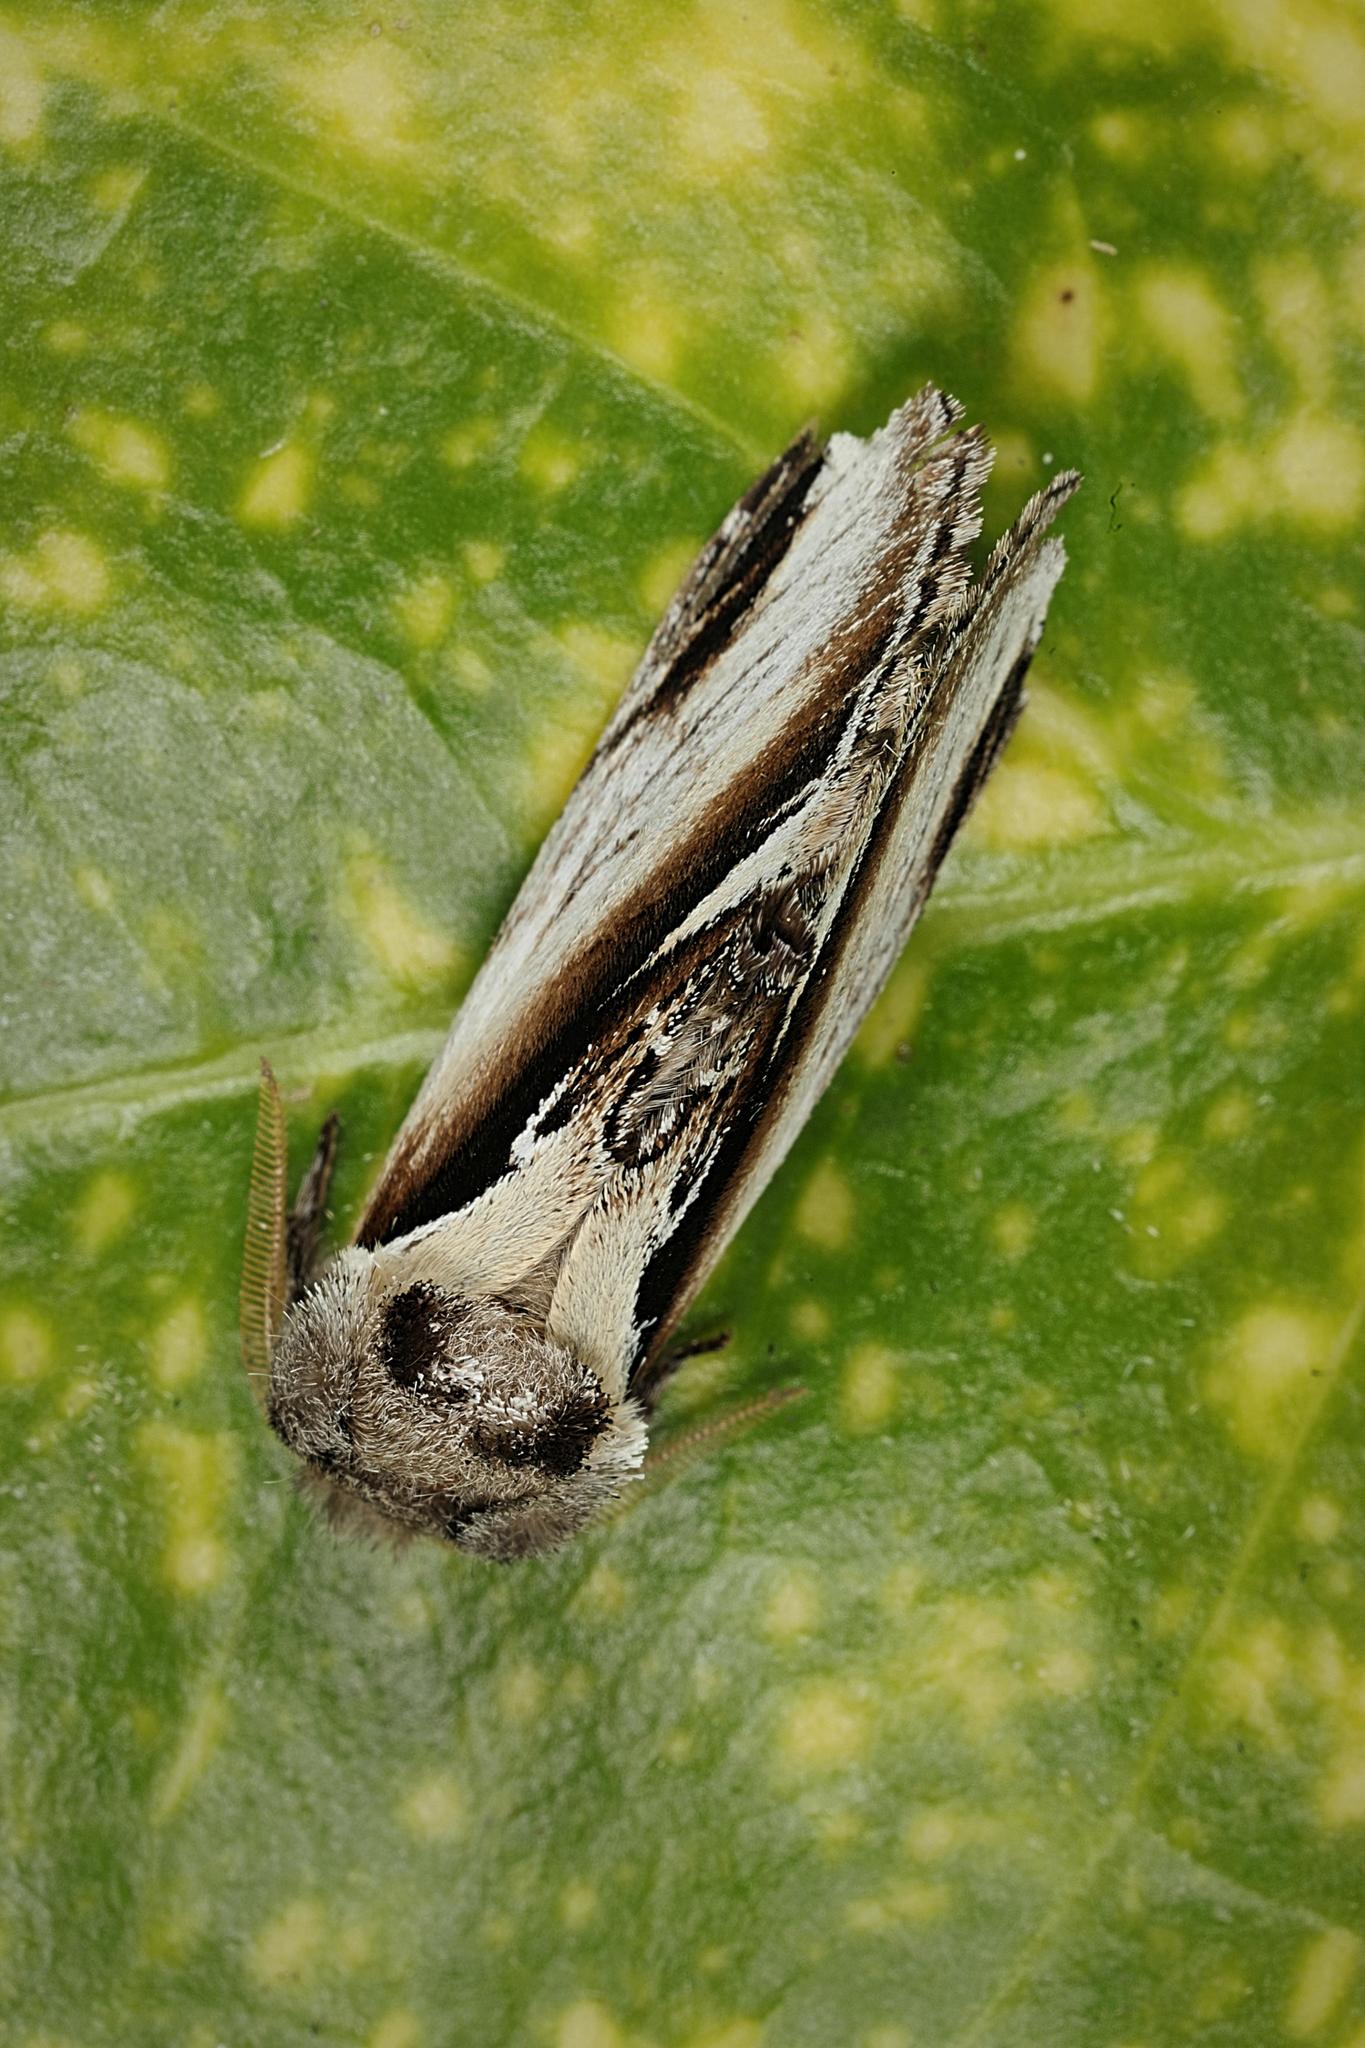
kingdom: Animalia
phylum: Arthropoda
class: Insecta
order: Lepidoptera
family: Notodontidae
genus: Pheosia
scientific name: Pheosia gnoma
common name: Lesser swallow prominent
